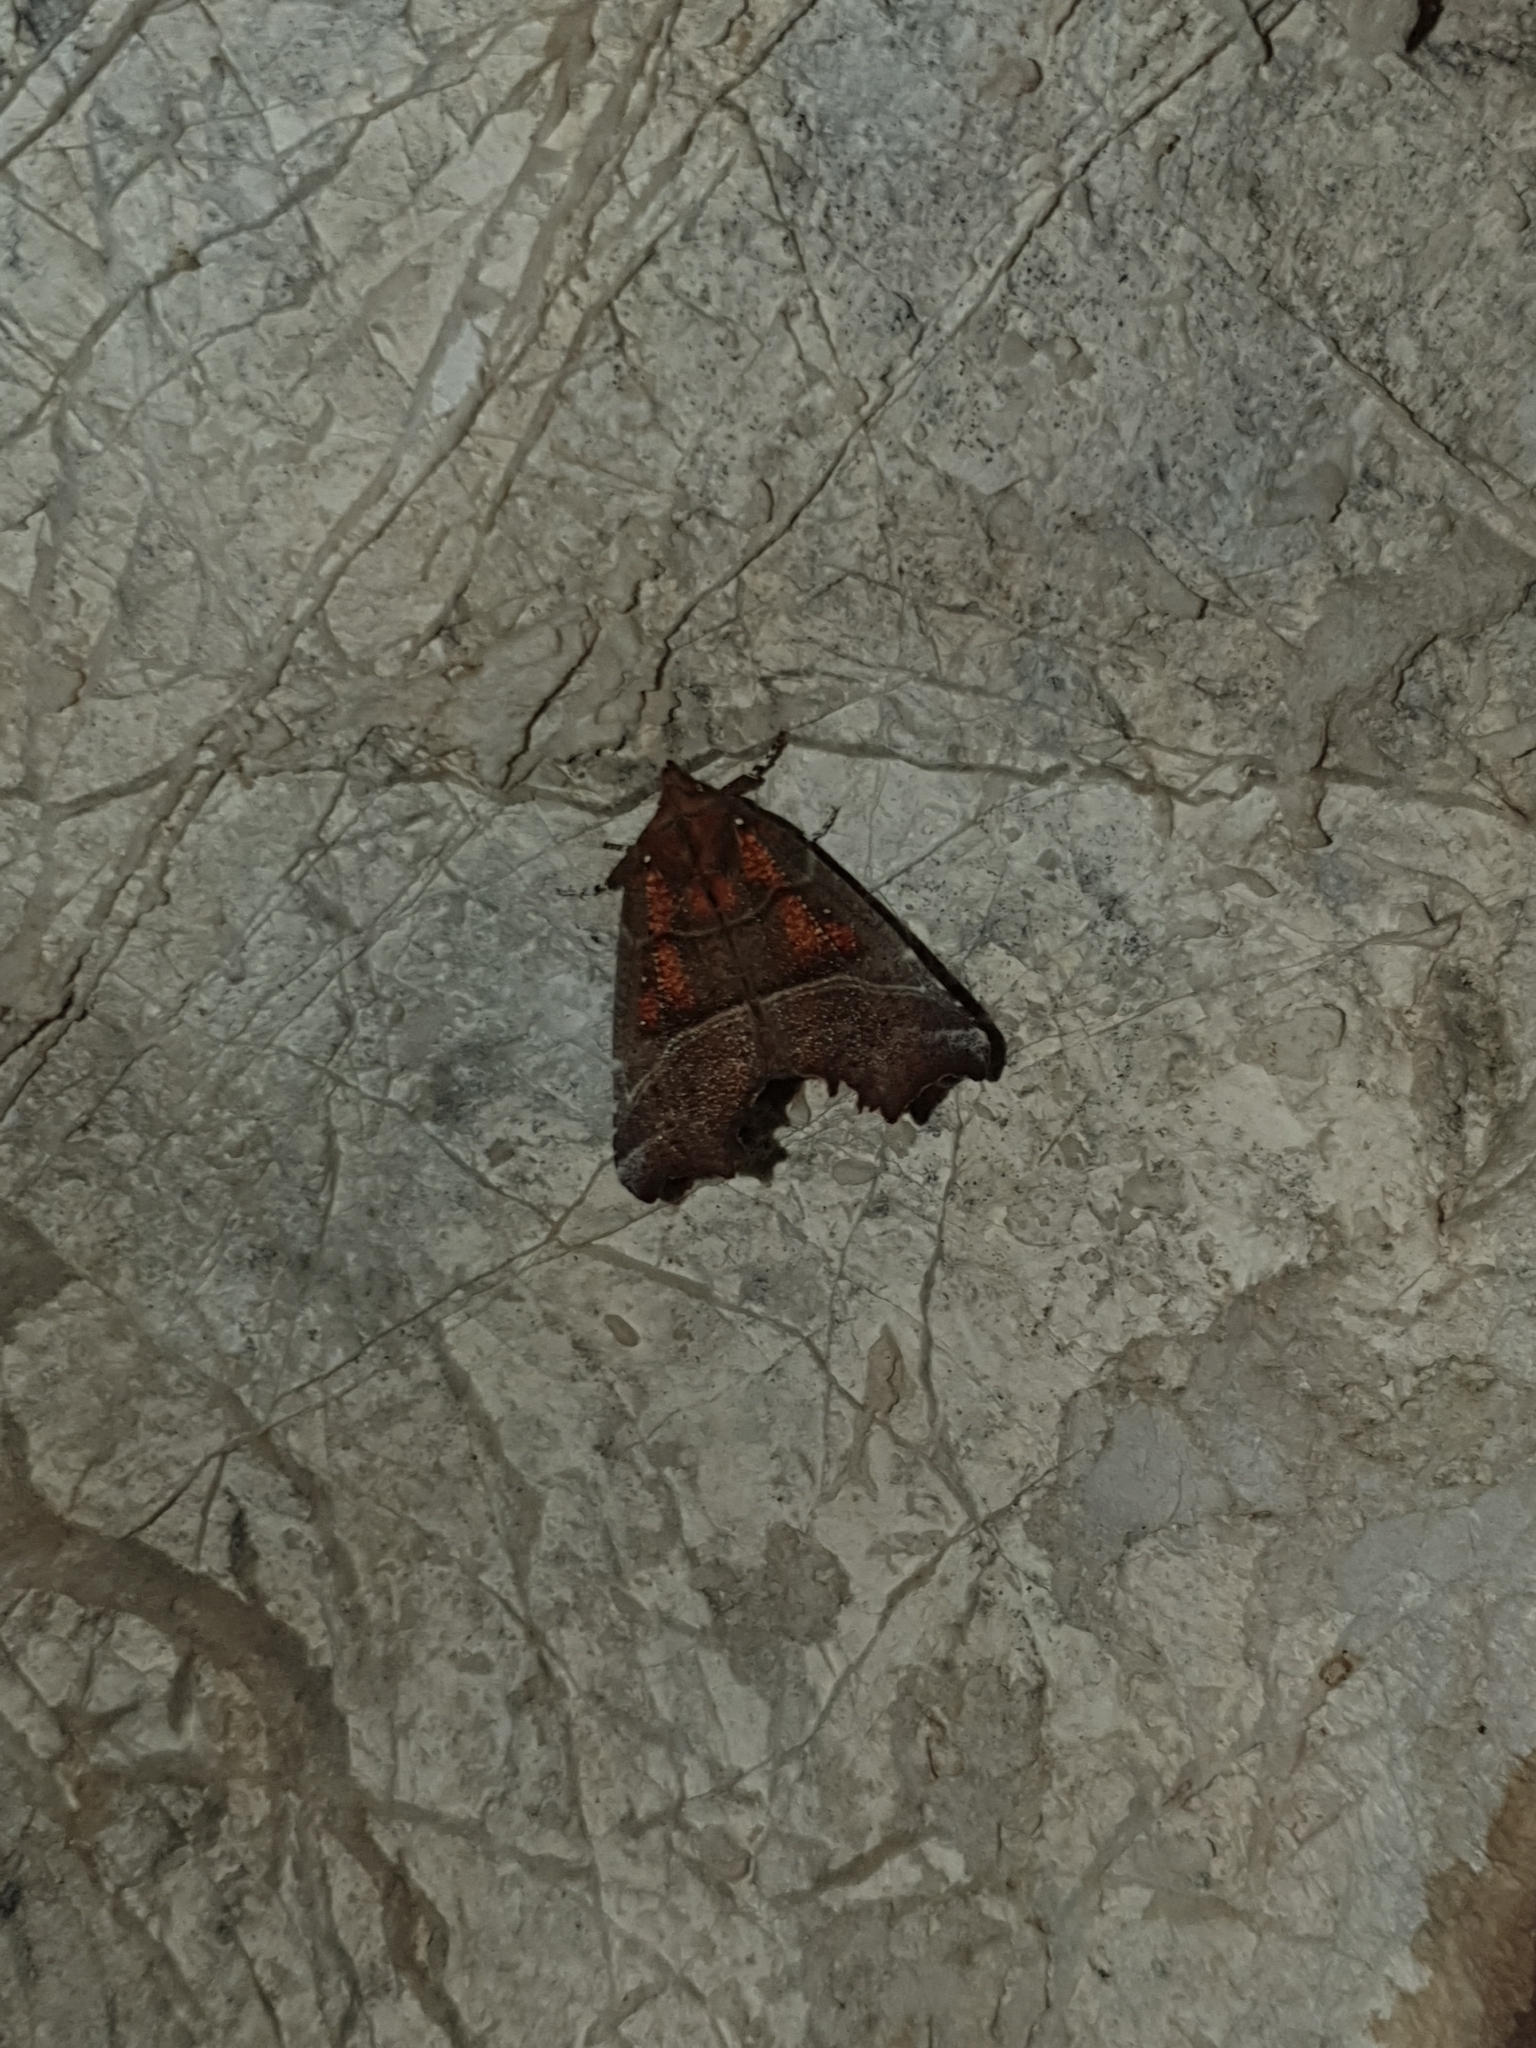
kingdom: Animalia
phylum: Arthropoda
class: Insecta
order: Lepidoptera
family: Erebidae
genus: Scoliopteryx
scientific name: Scoliopteryx libatrix
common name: Herald
